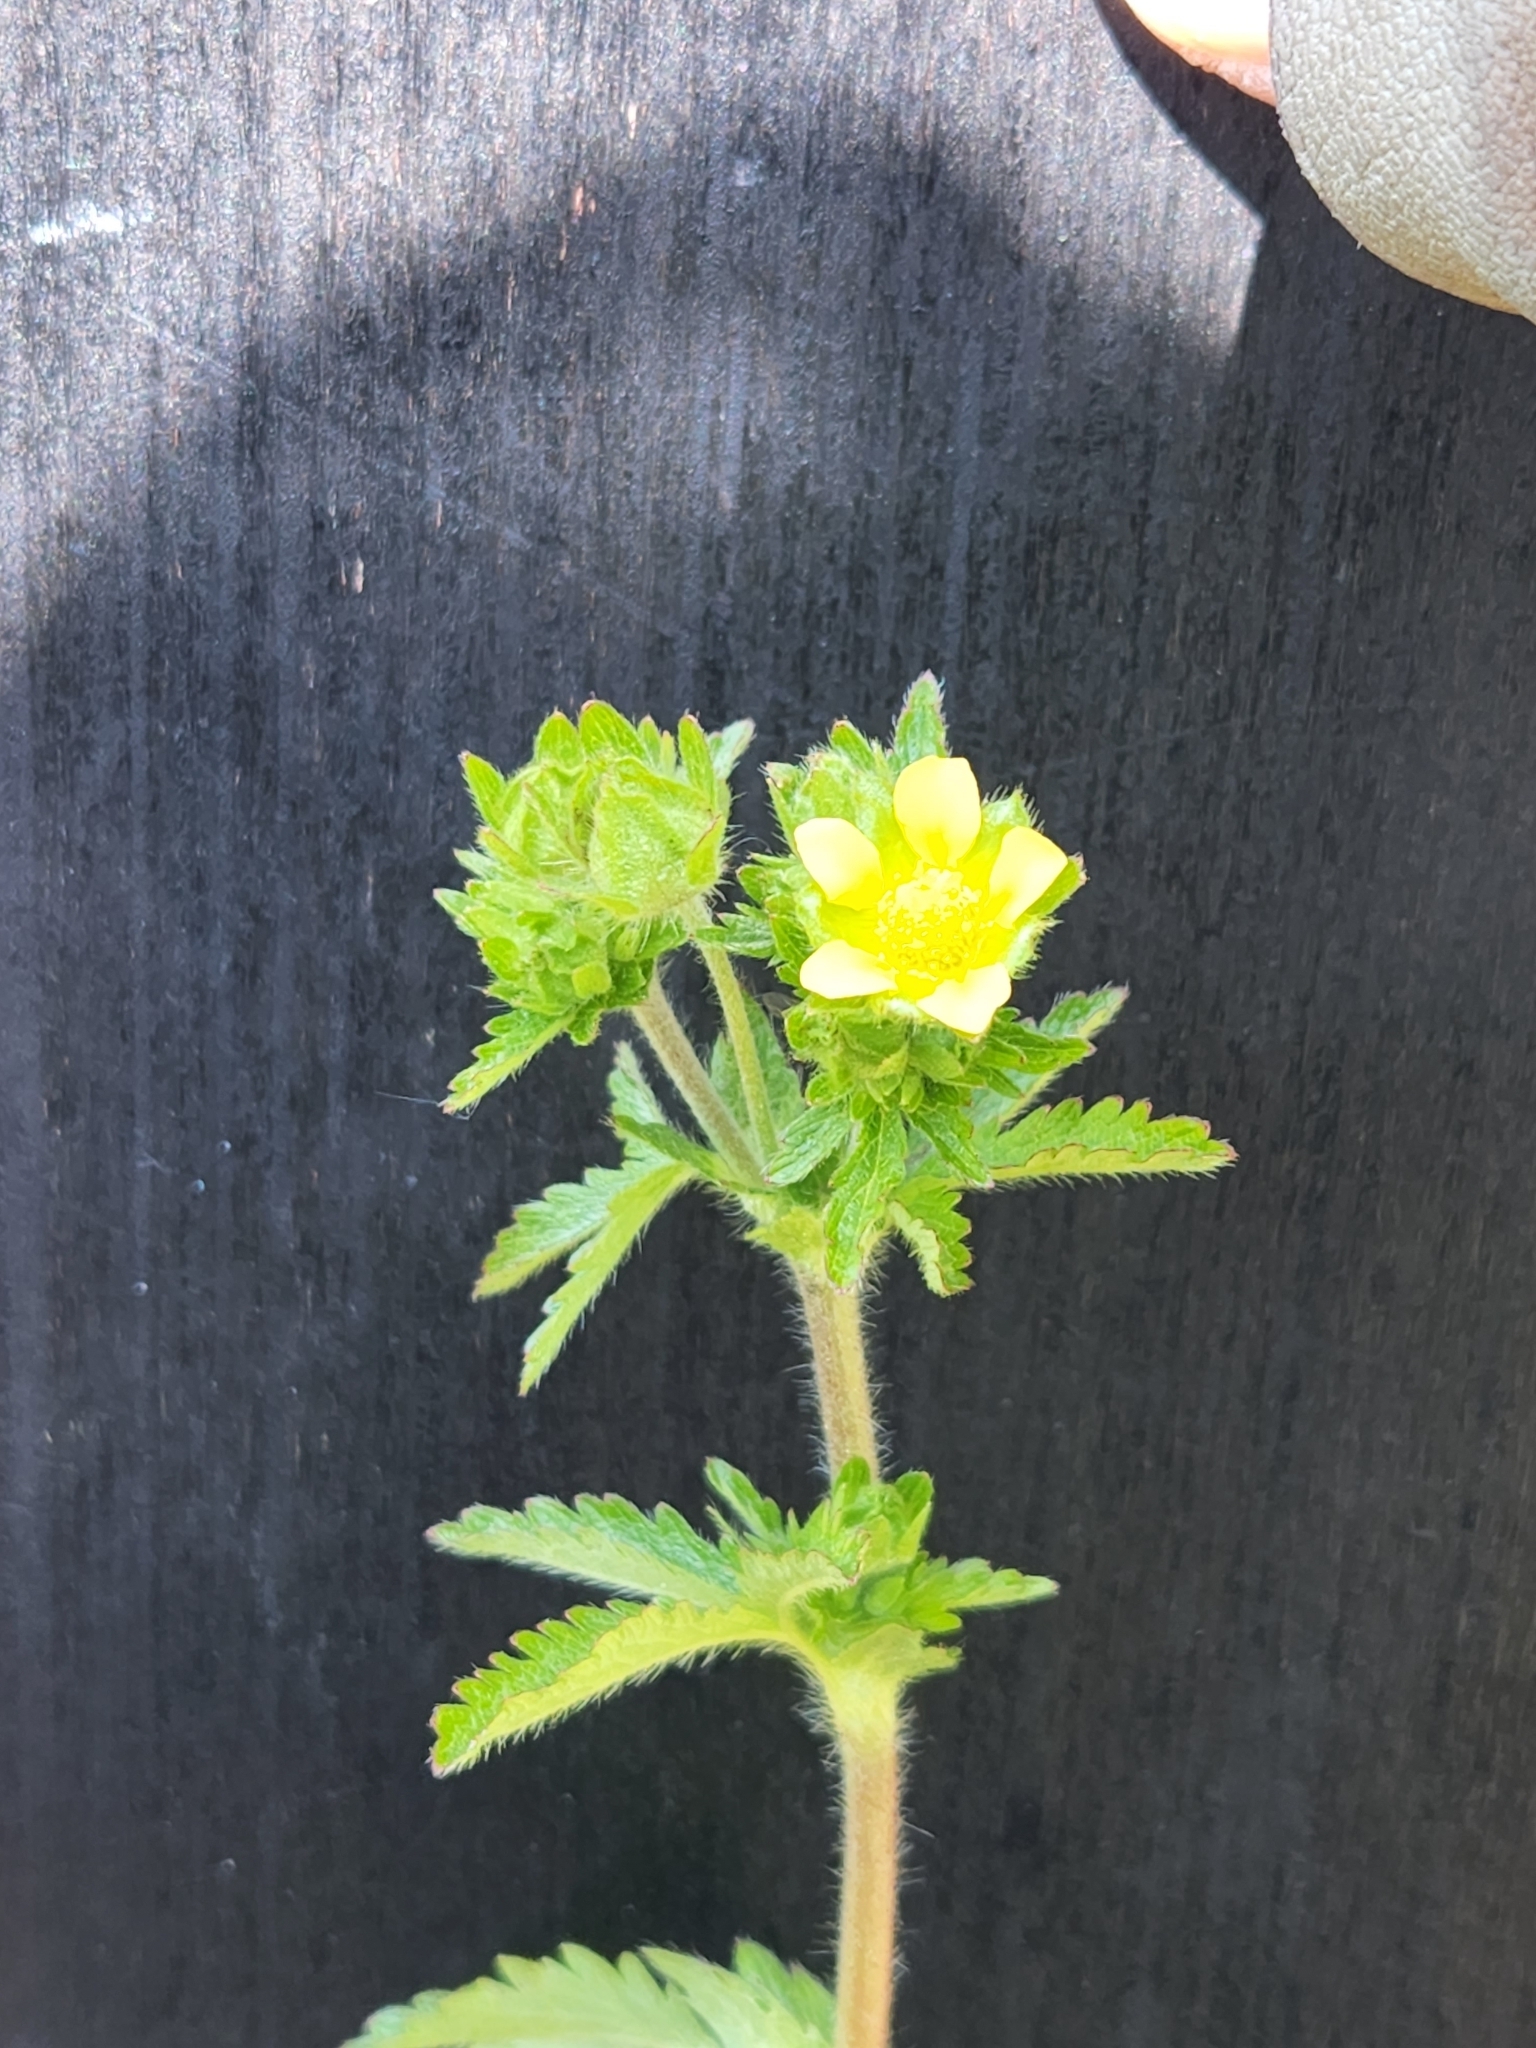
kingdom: Plantae
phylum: Tracheophyta
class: Magnoliopsida
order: Rosales
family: Rosaceae
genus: Potentilla
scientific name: Potentilla norvegica
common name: Ternate-leaved cinquefoil
